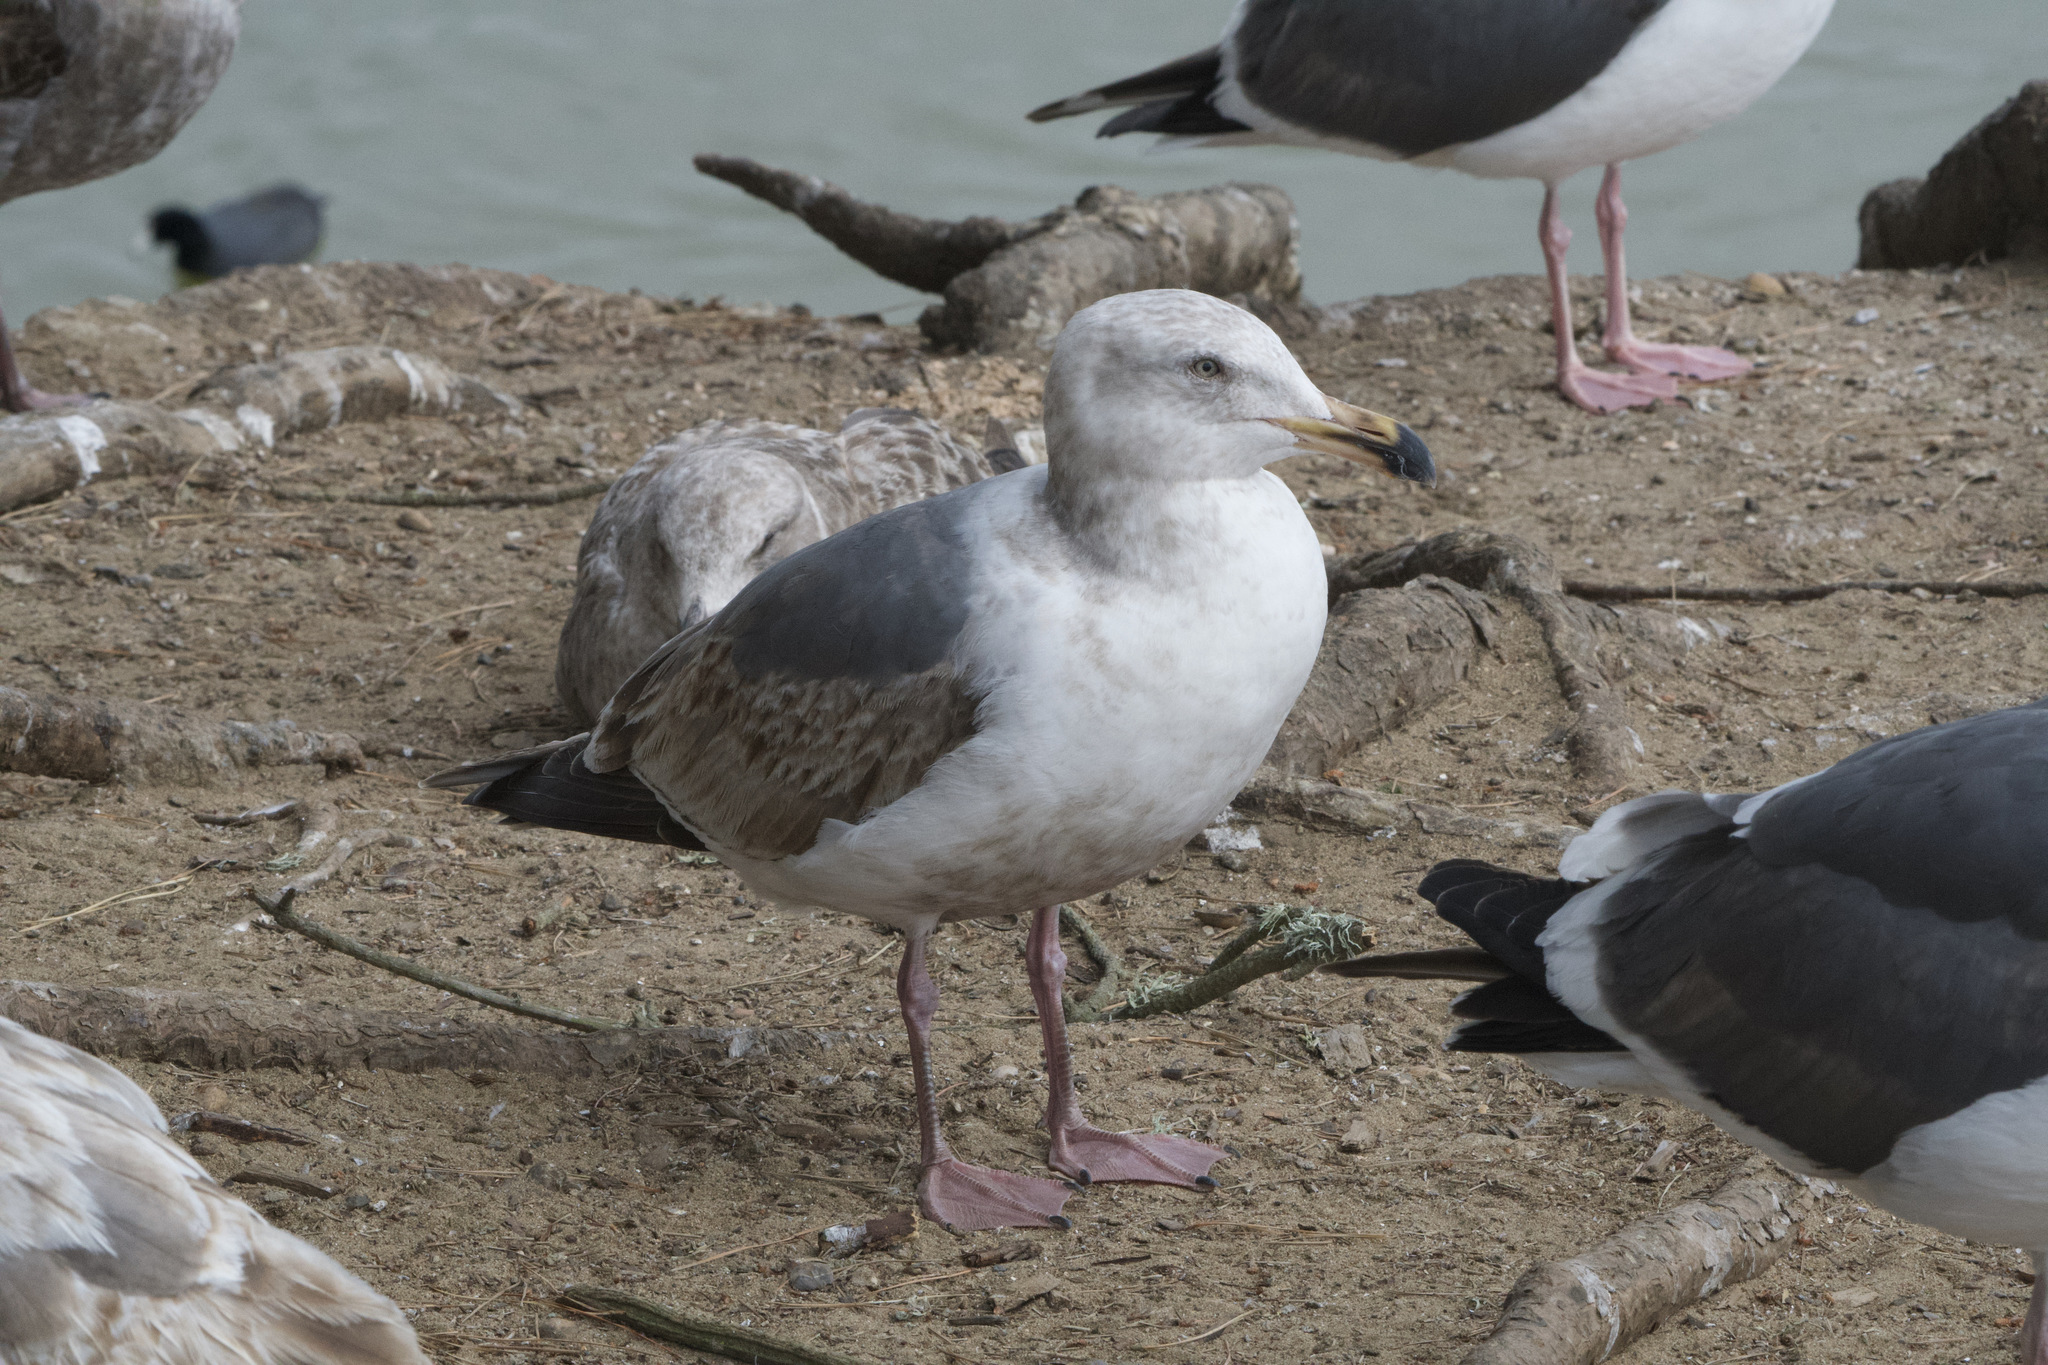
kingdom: Animalia
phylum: Chordata
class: Aves
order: Charadriiformes
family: Laridae
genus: Larus
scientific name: Larus occidentalis
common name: Western gull
